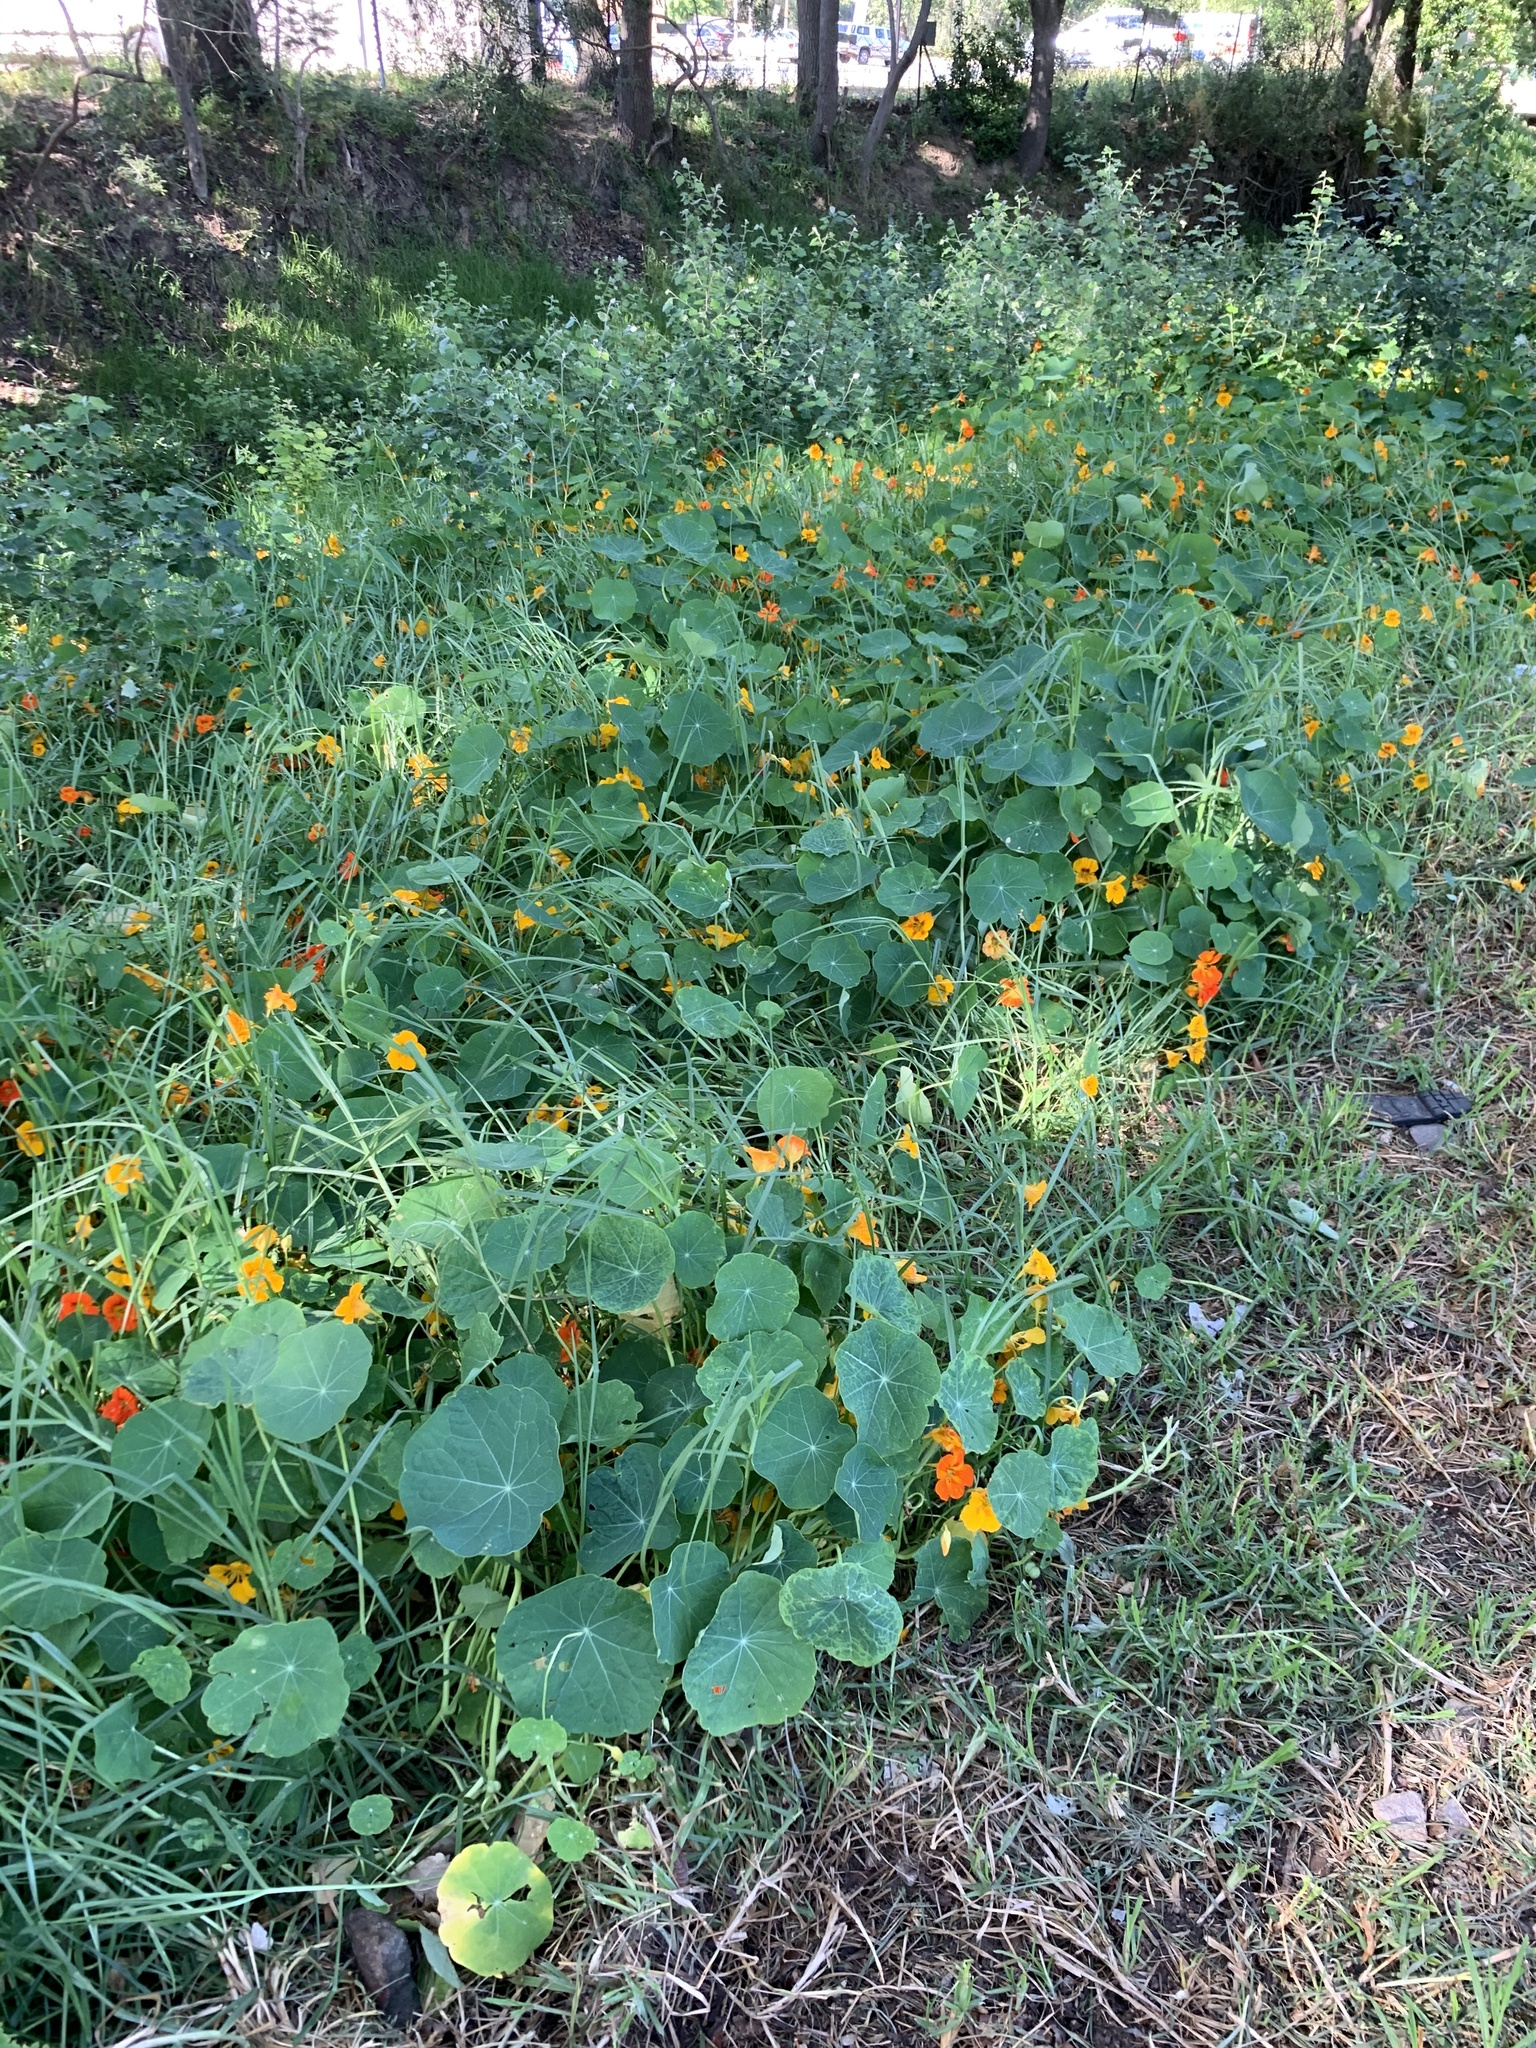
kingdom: Plantae
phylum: Tracheophyta
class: Magnoliopsida
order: Brassicales
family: Tropaeolaceae
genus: Tropaeolum
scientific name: Tropaeolum majus
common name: Nasturtium
